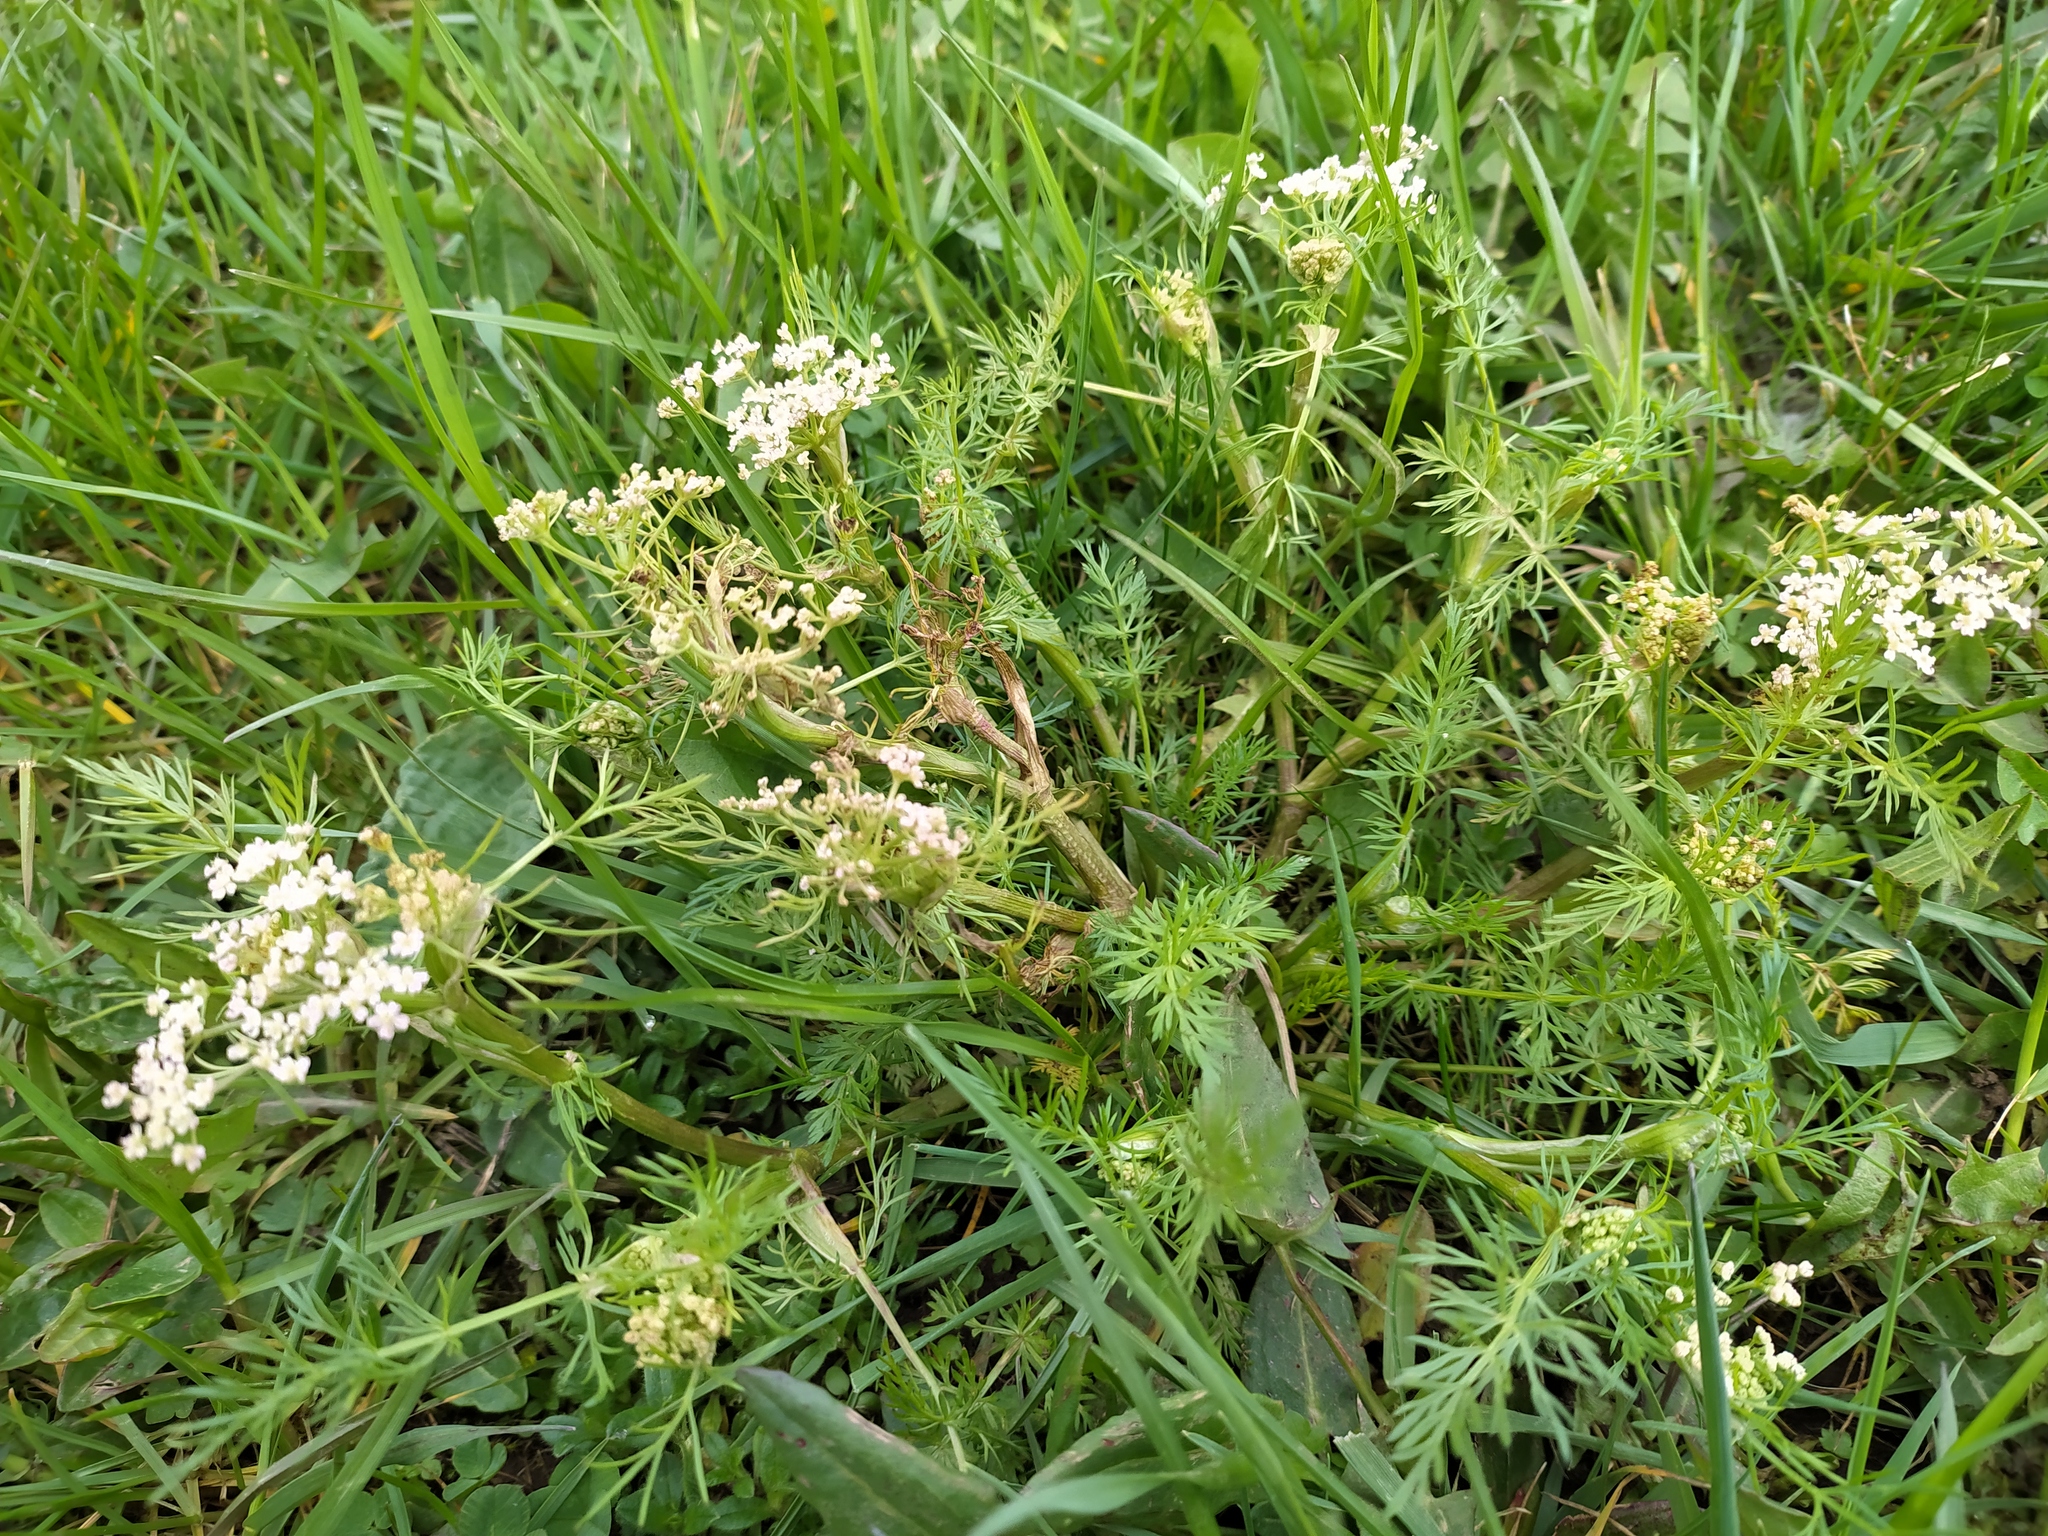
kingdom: Plantae
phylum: Tracheophyta
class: Magnoliopsida
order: Apiales
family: Apiaceae
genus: Carum
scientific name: Carum carvi
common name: Caraway
